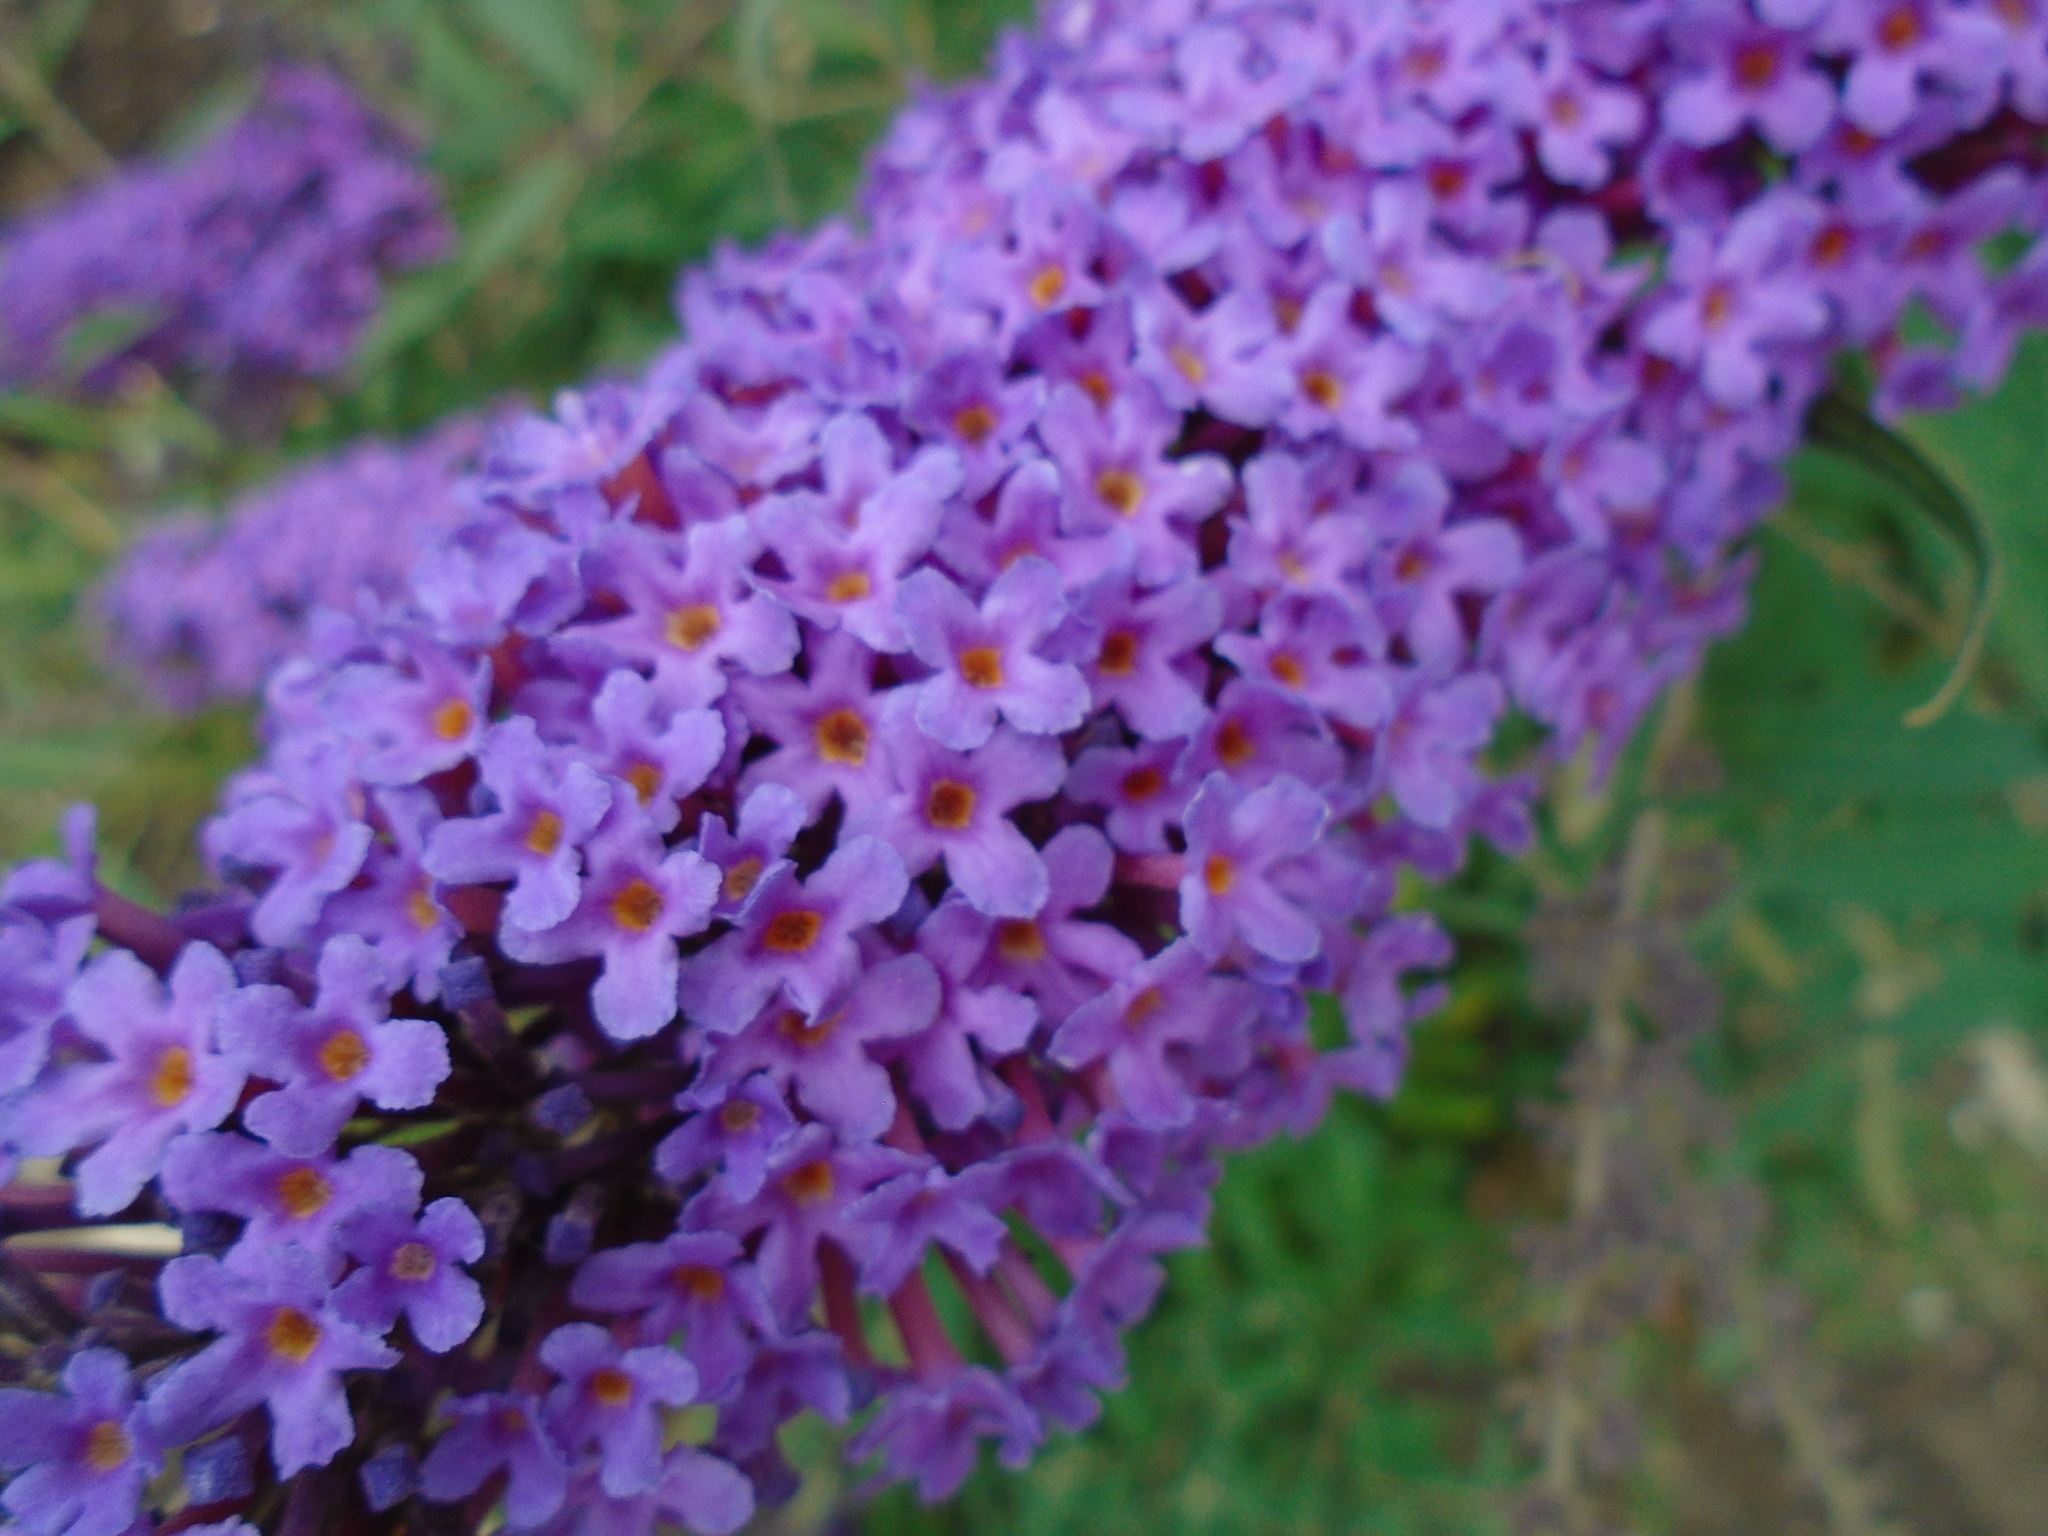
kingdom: Plantae
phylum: Tracheophyta
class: Magnoliopsida
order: Lamiales
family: Scrophulariaceae
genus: Buddleja
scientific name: Buddleja davidii
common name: Butterfly-bush
